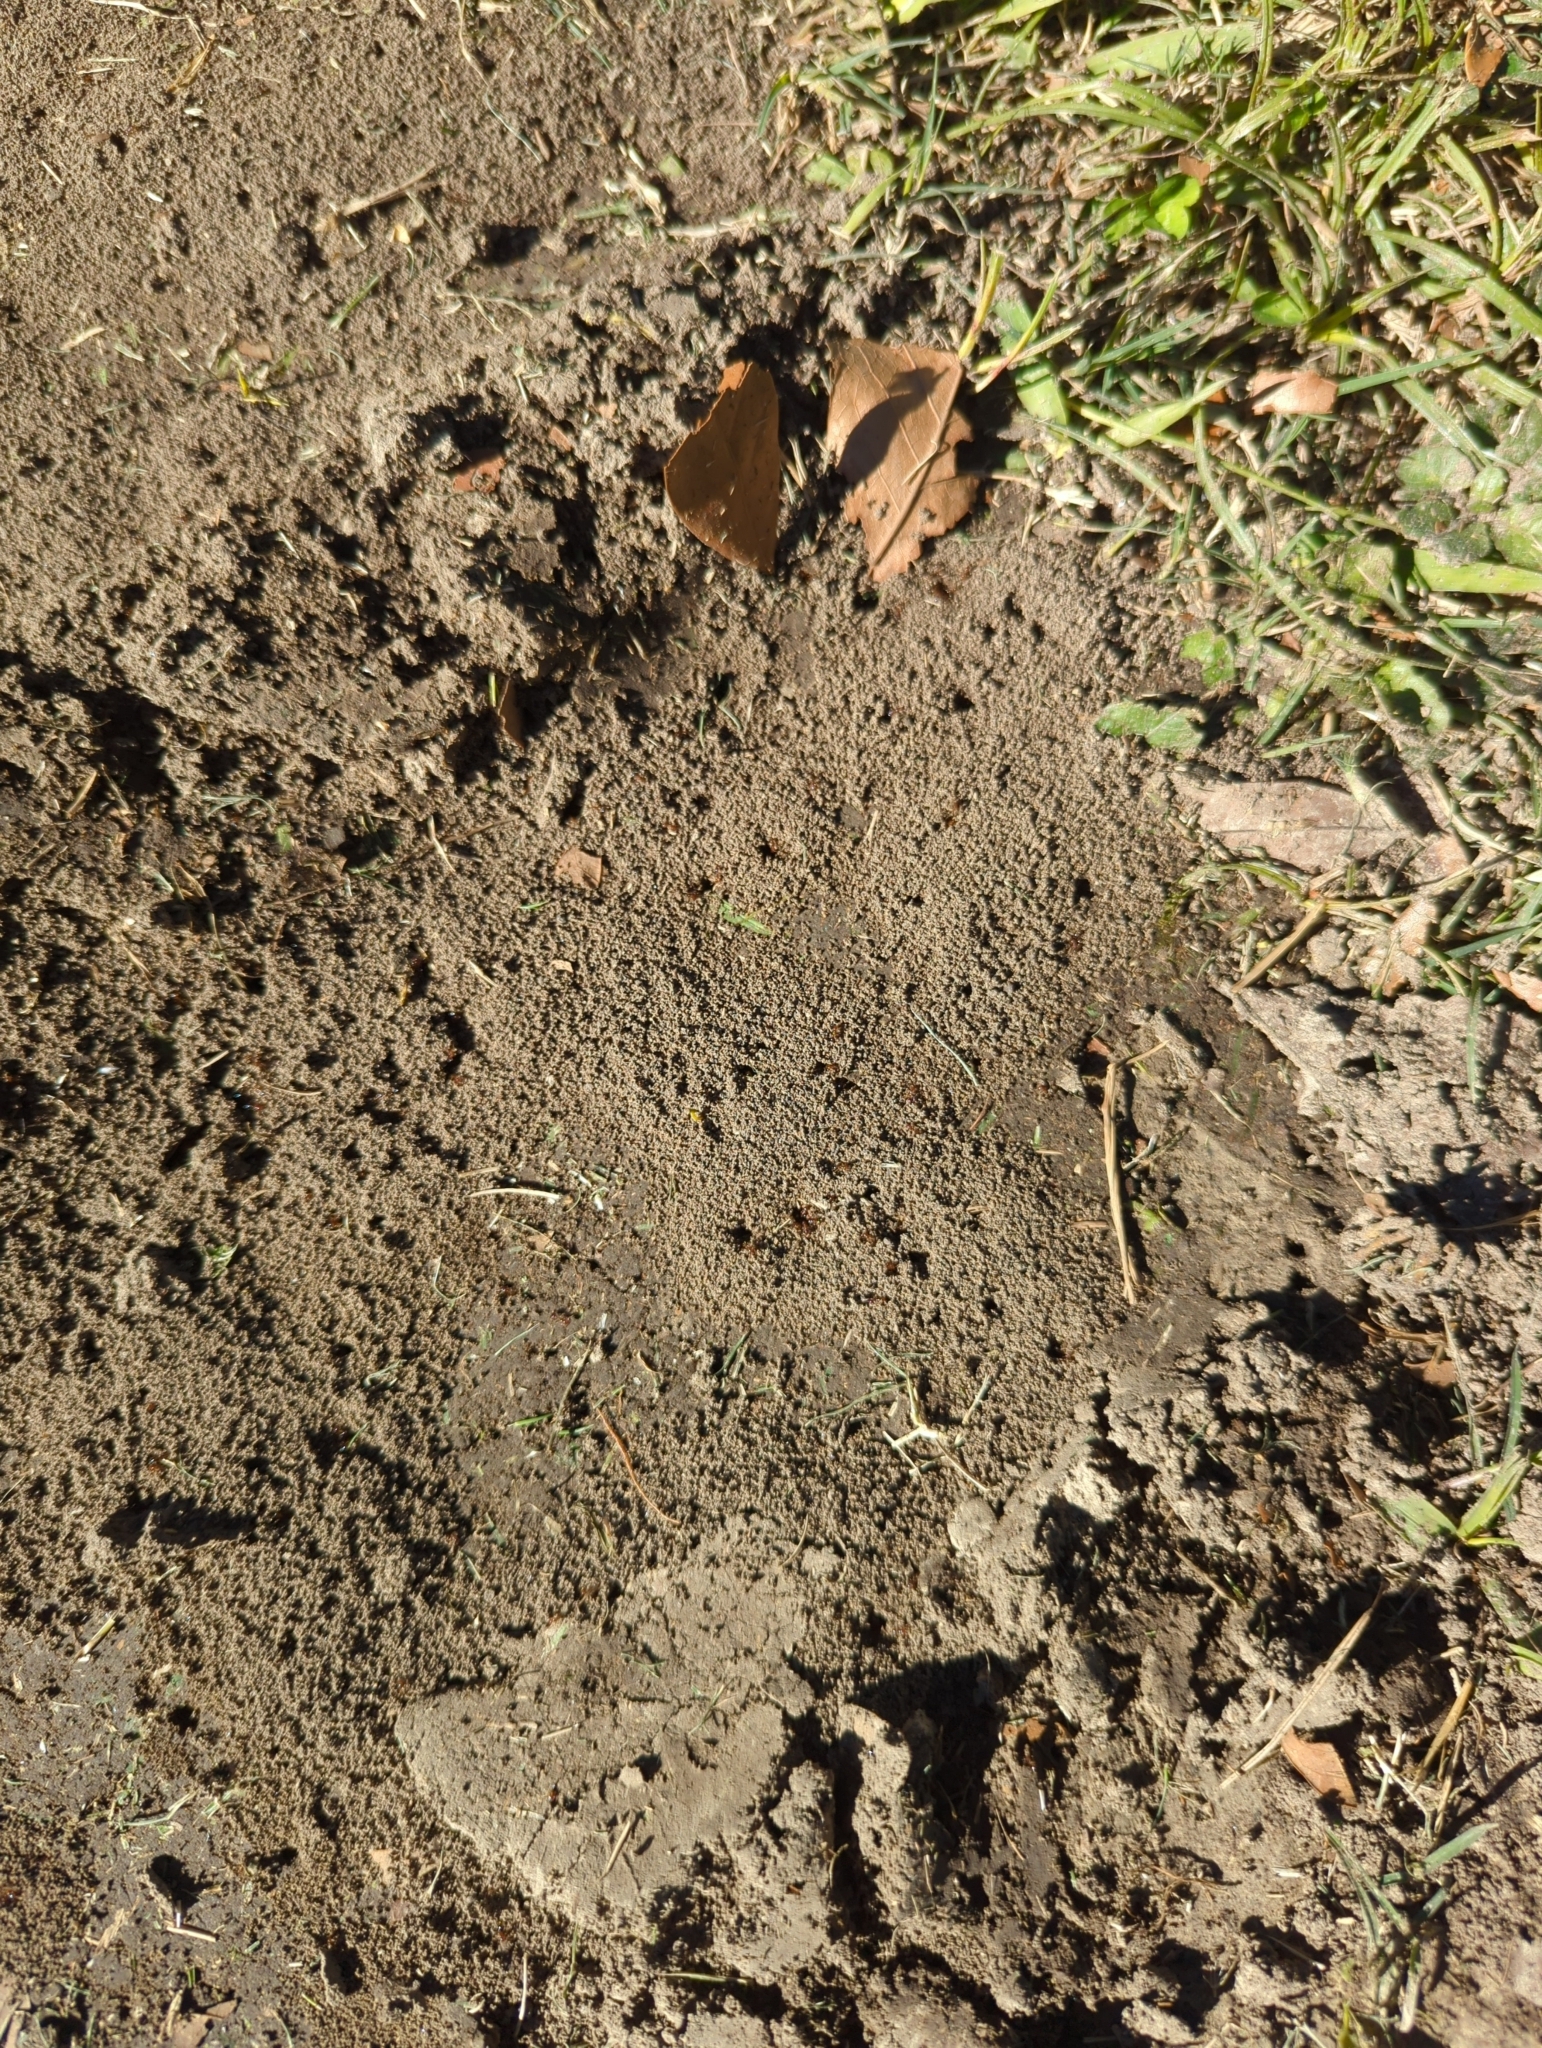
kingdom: Animalia
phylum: Arthropoda
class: Insecta
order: Hymenoptera
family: Formicidae
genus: Solenopsis
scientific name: Solenopsis invicta
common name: Red imported fire ant
